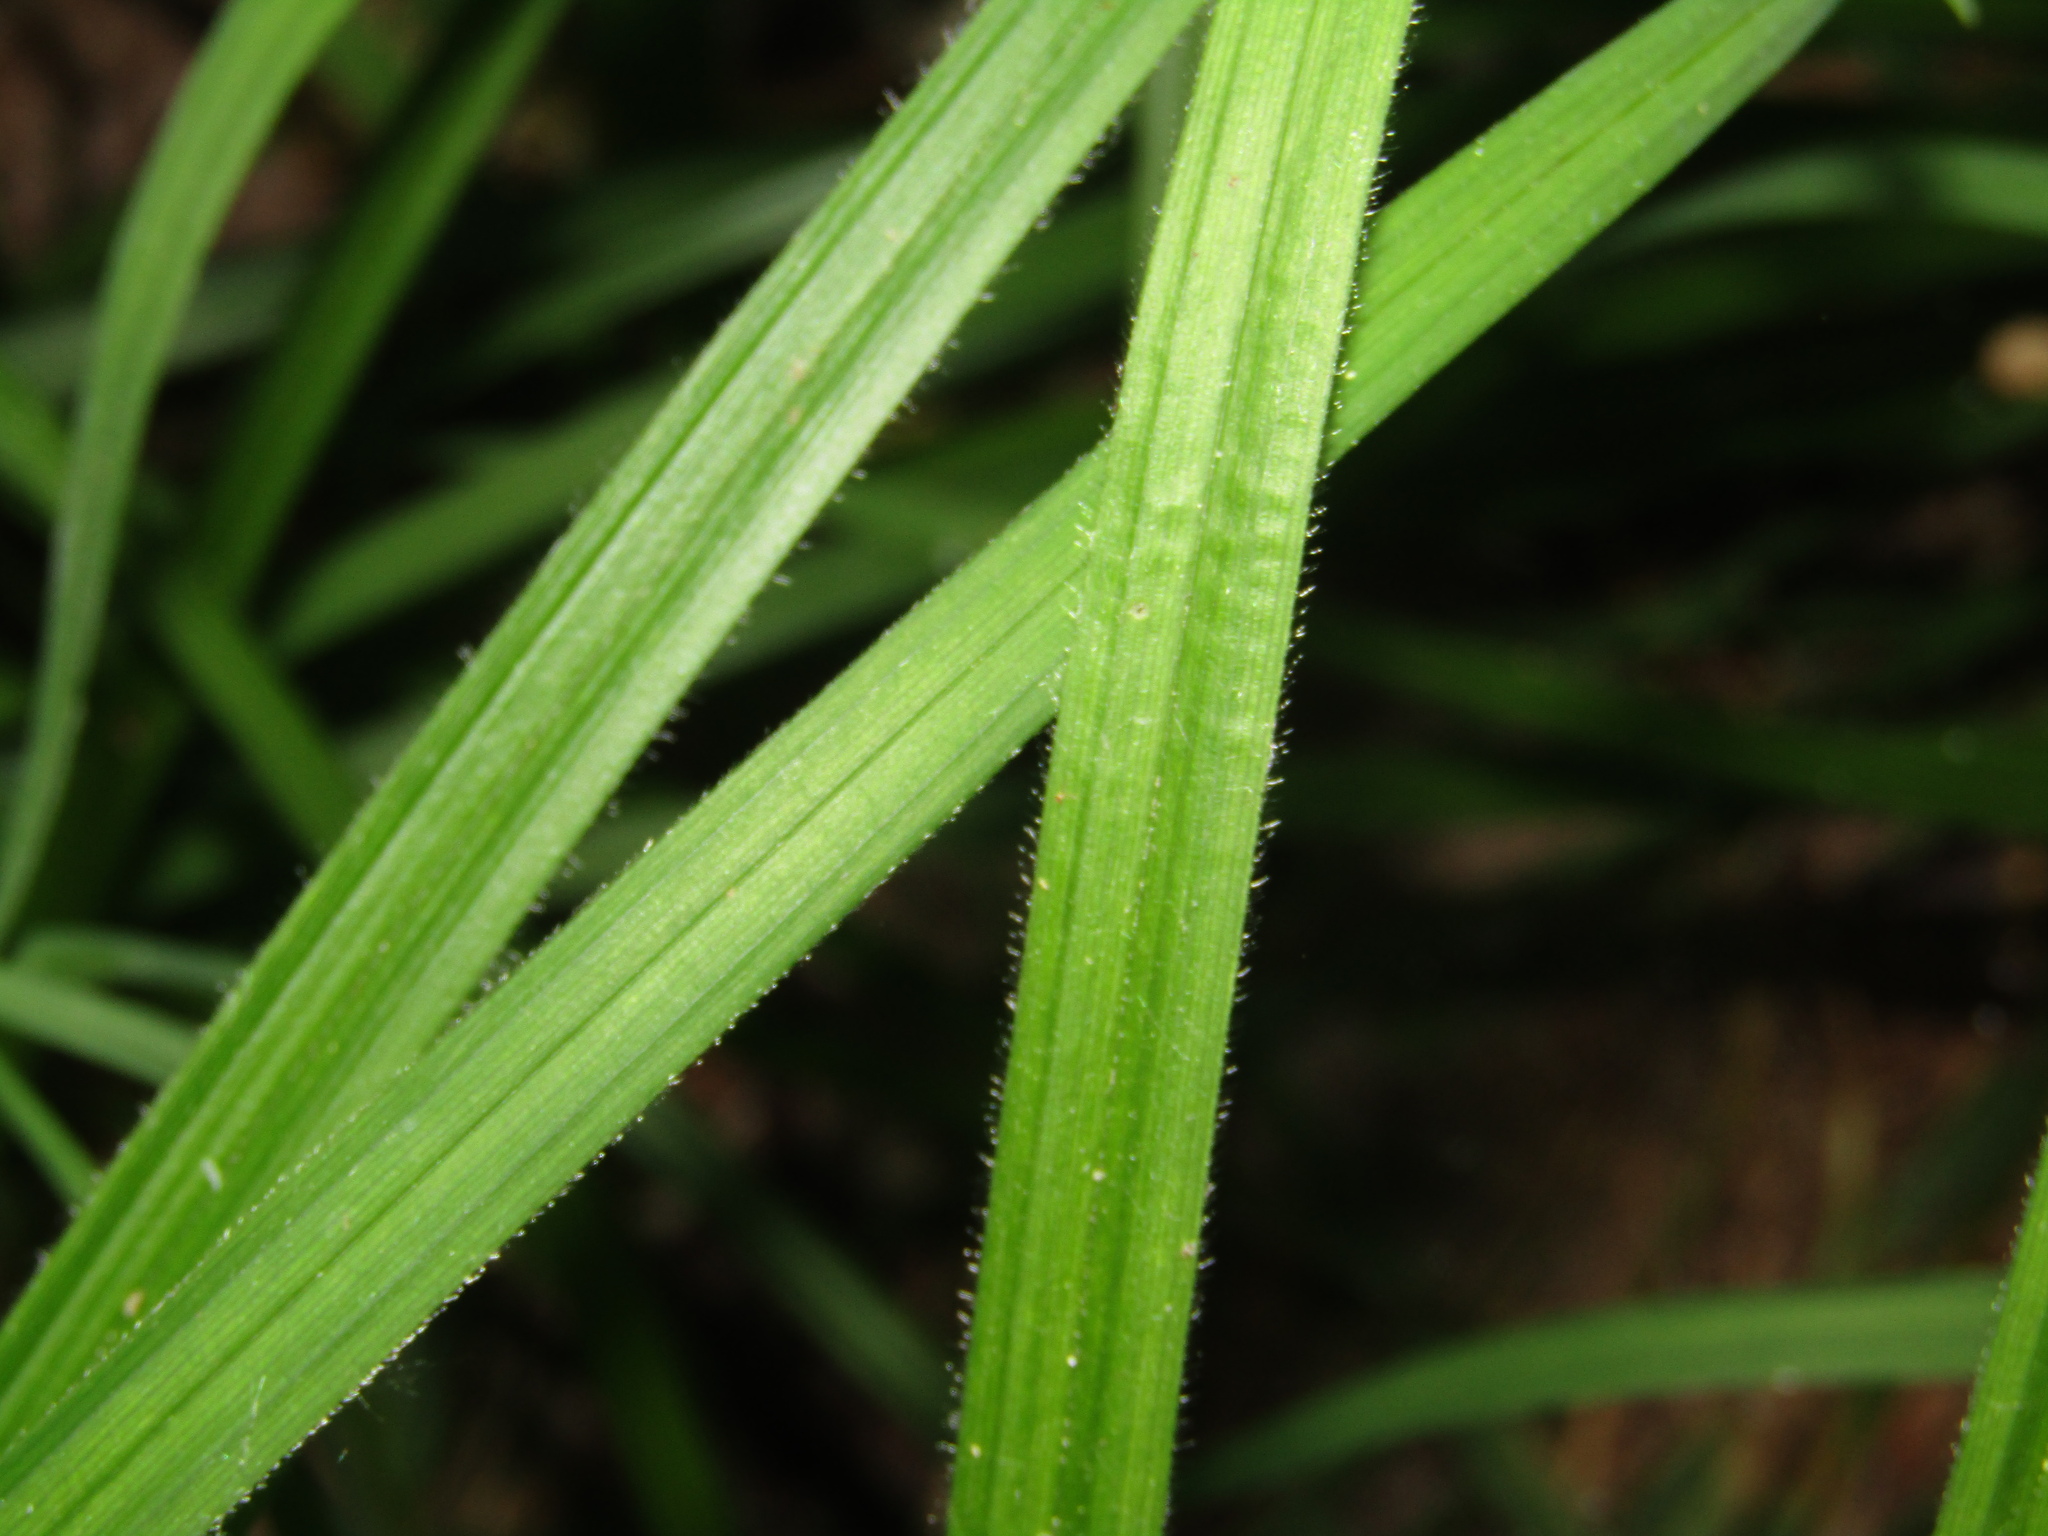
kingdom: Plantae
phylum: Tracheophyta
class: Liliopsida
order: Poales
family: Cyperaceae
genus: Carex
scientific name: Carex pilosa
